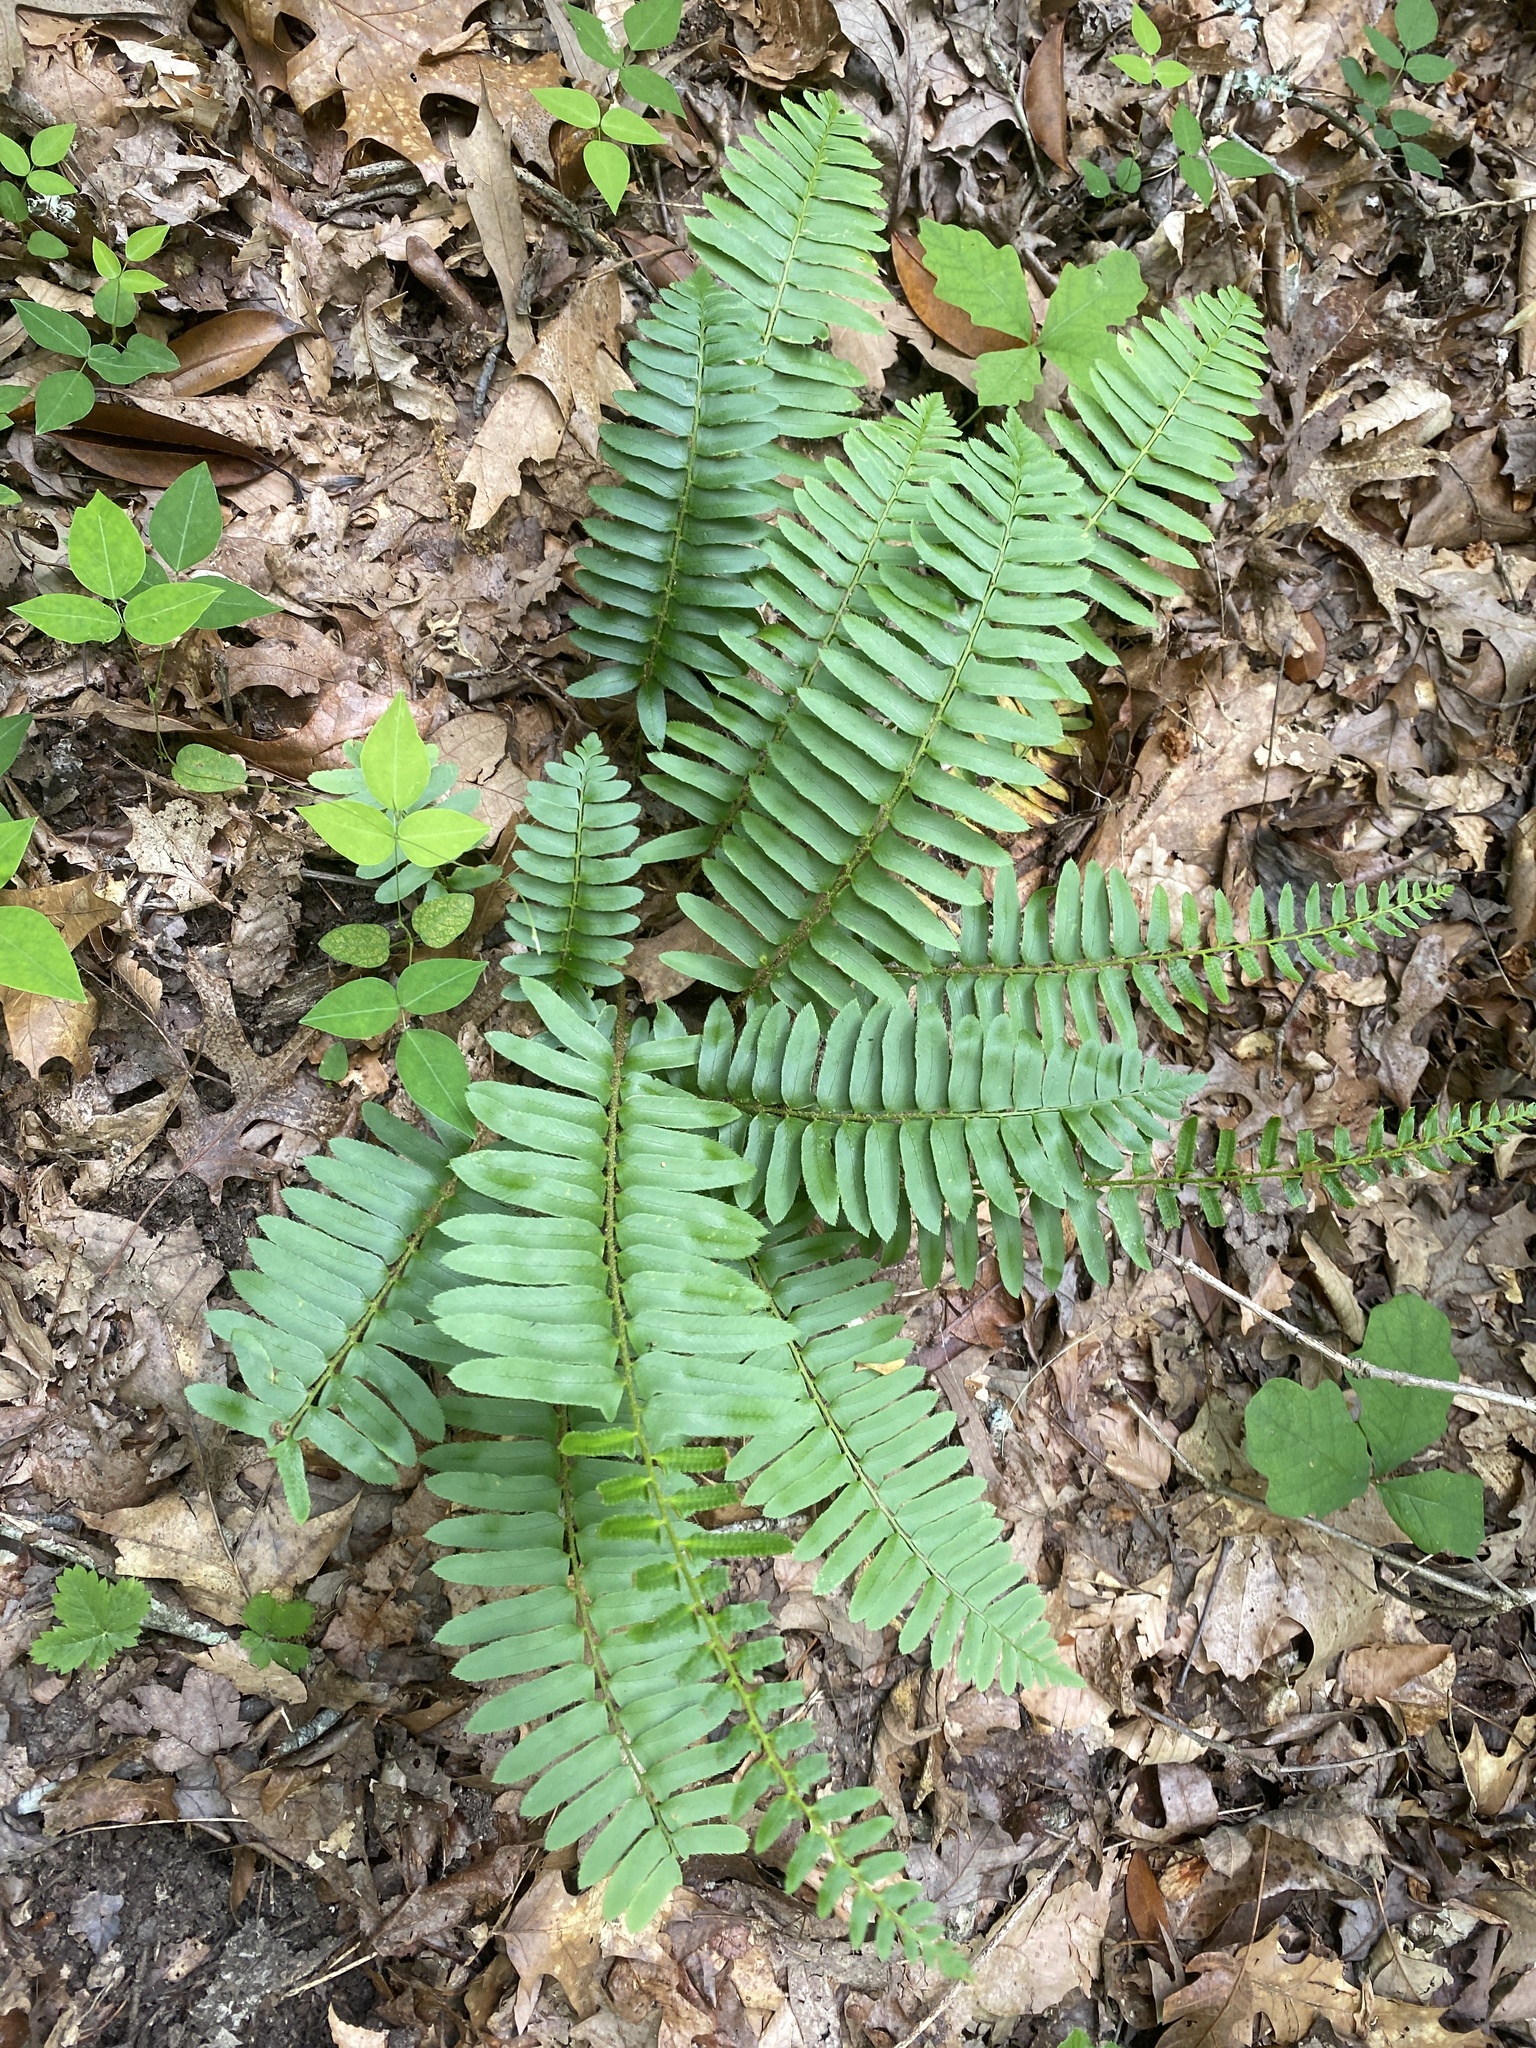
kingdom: Plantae
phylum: Tracheophyta
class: Polypodiopsida
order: Polypodiales
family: Dryopteridaceae
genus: Polystichum
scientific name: Polystichum acrostichoides
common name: Christmas fern
